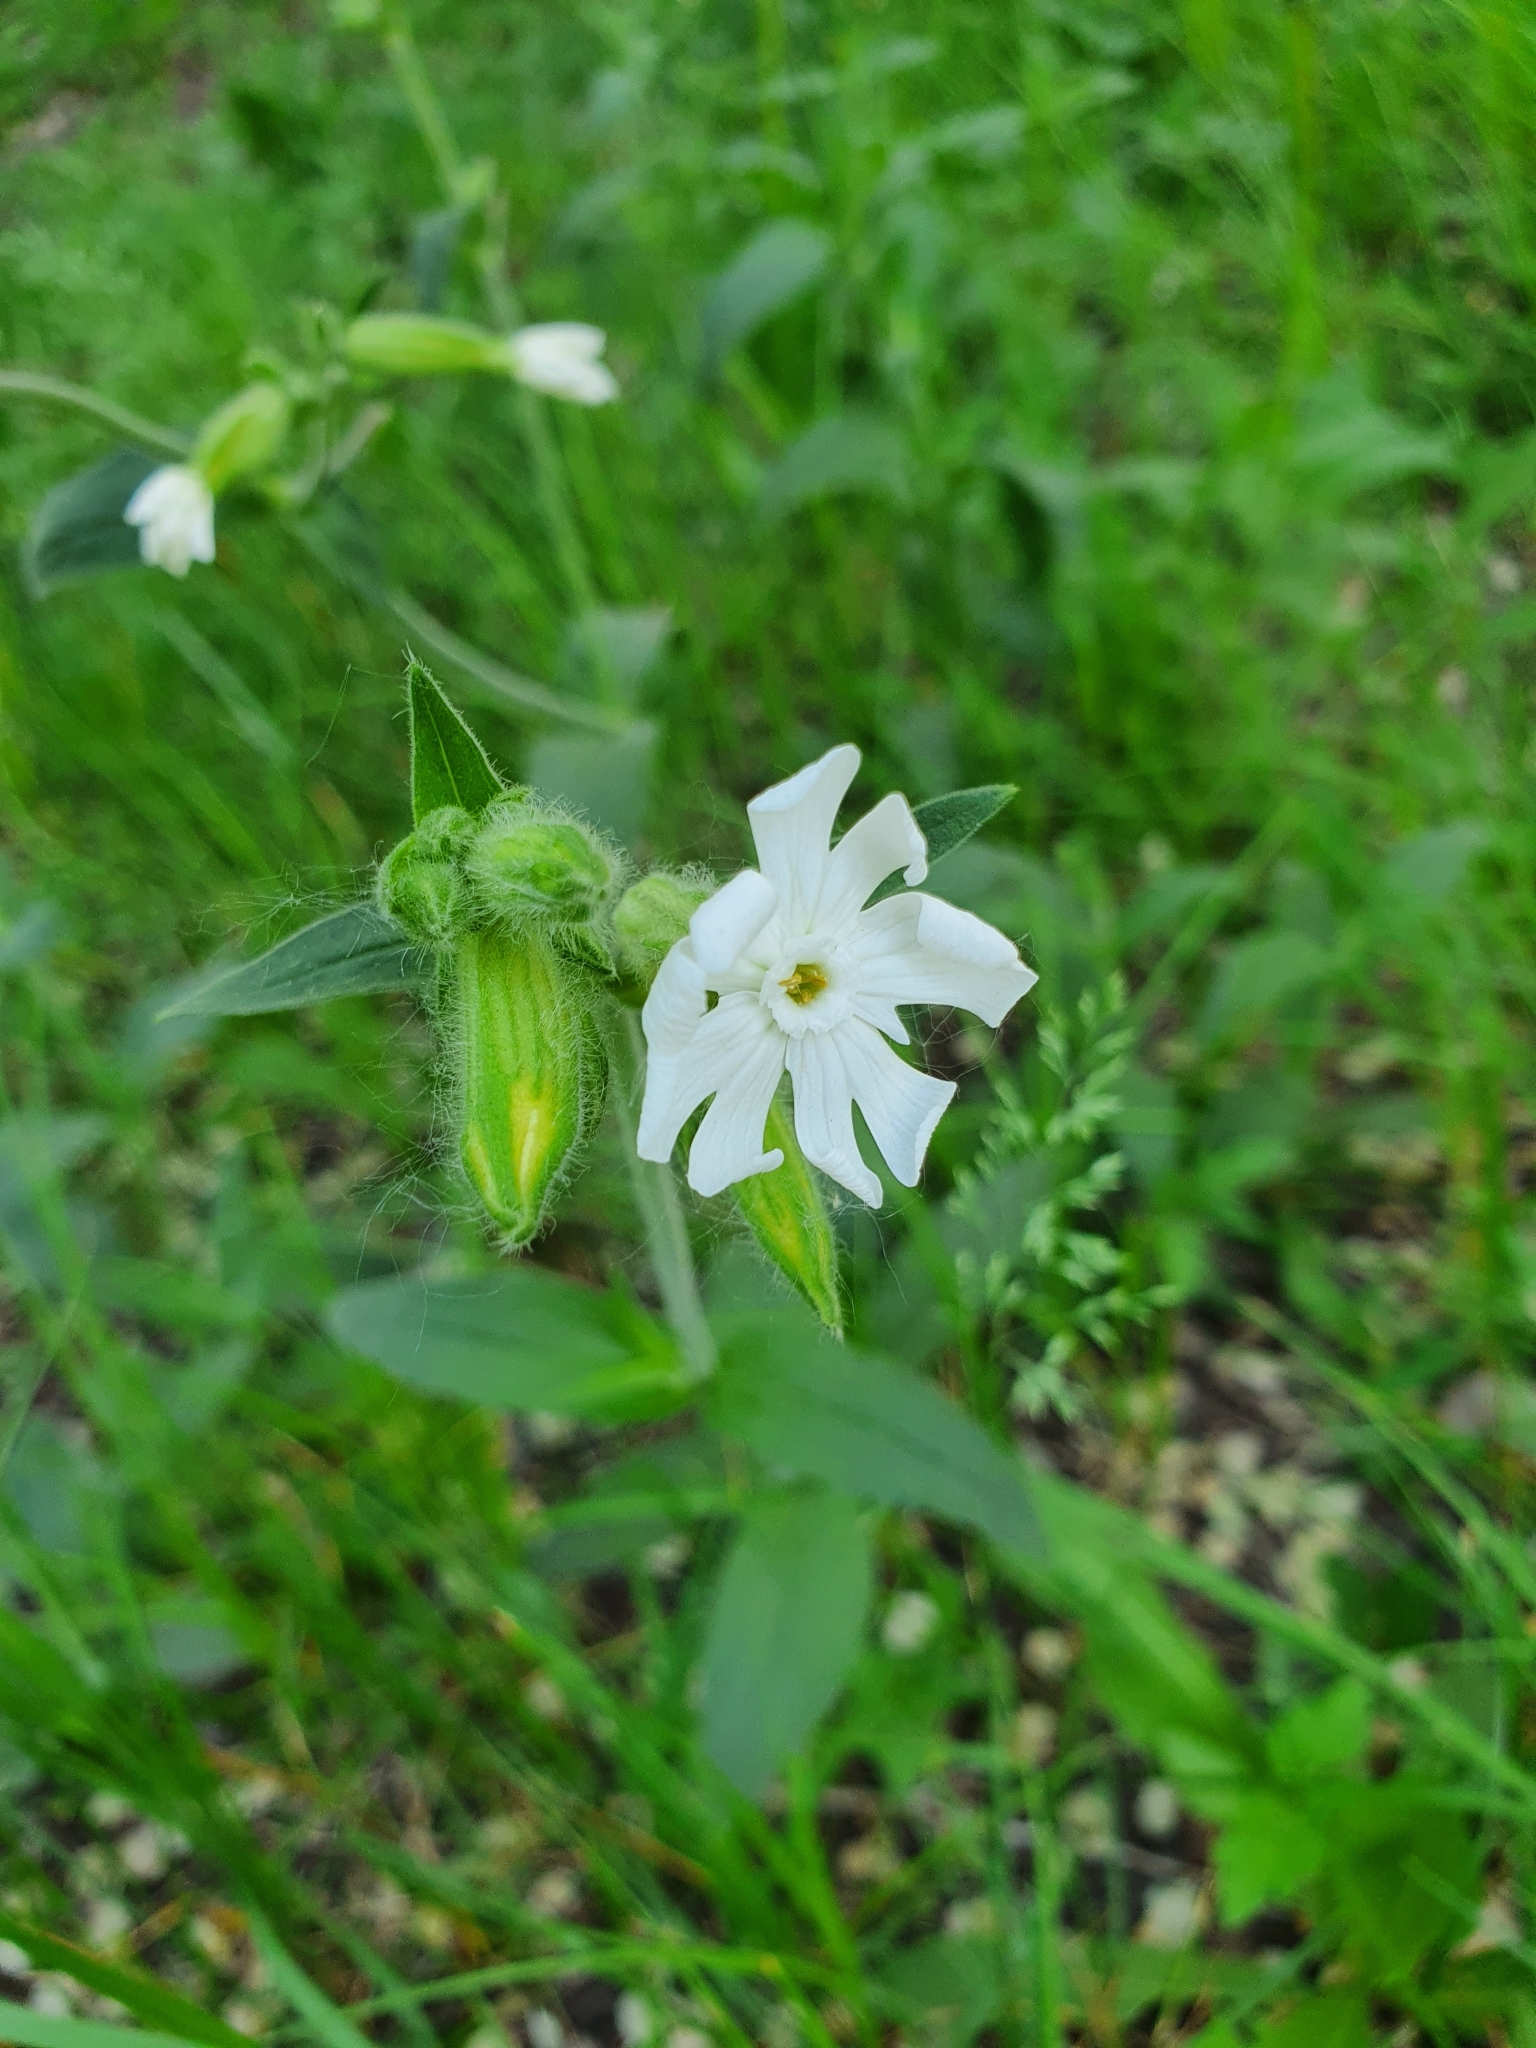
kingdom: Plantae
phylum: Tracheophyta
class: Magnoliopsida
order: Caryophyllales
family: Caryophyllaceae
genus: Silene
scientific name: Silene latifolia
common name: White campion
